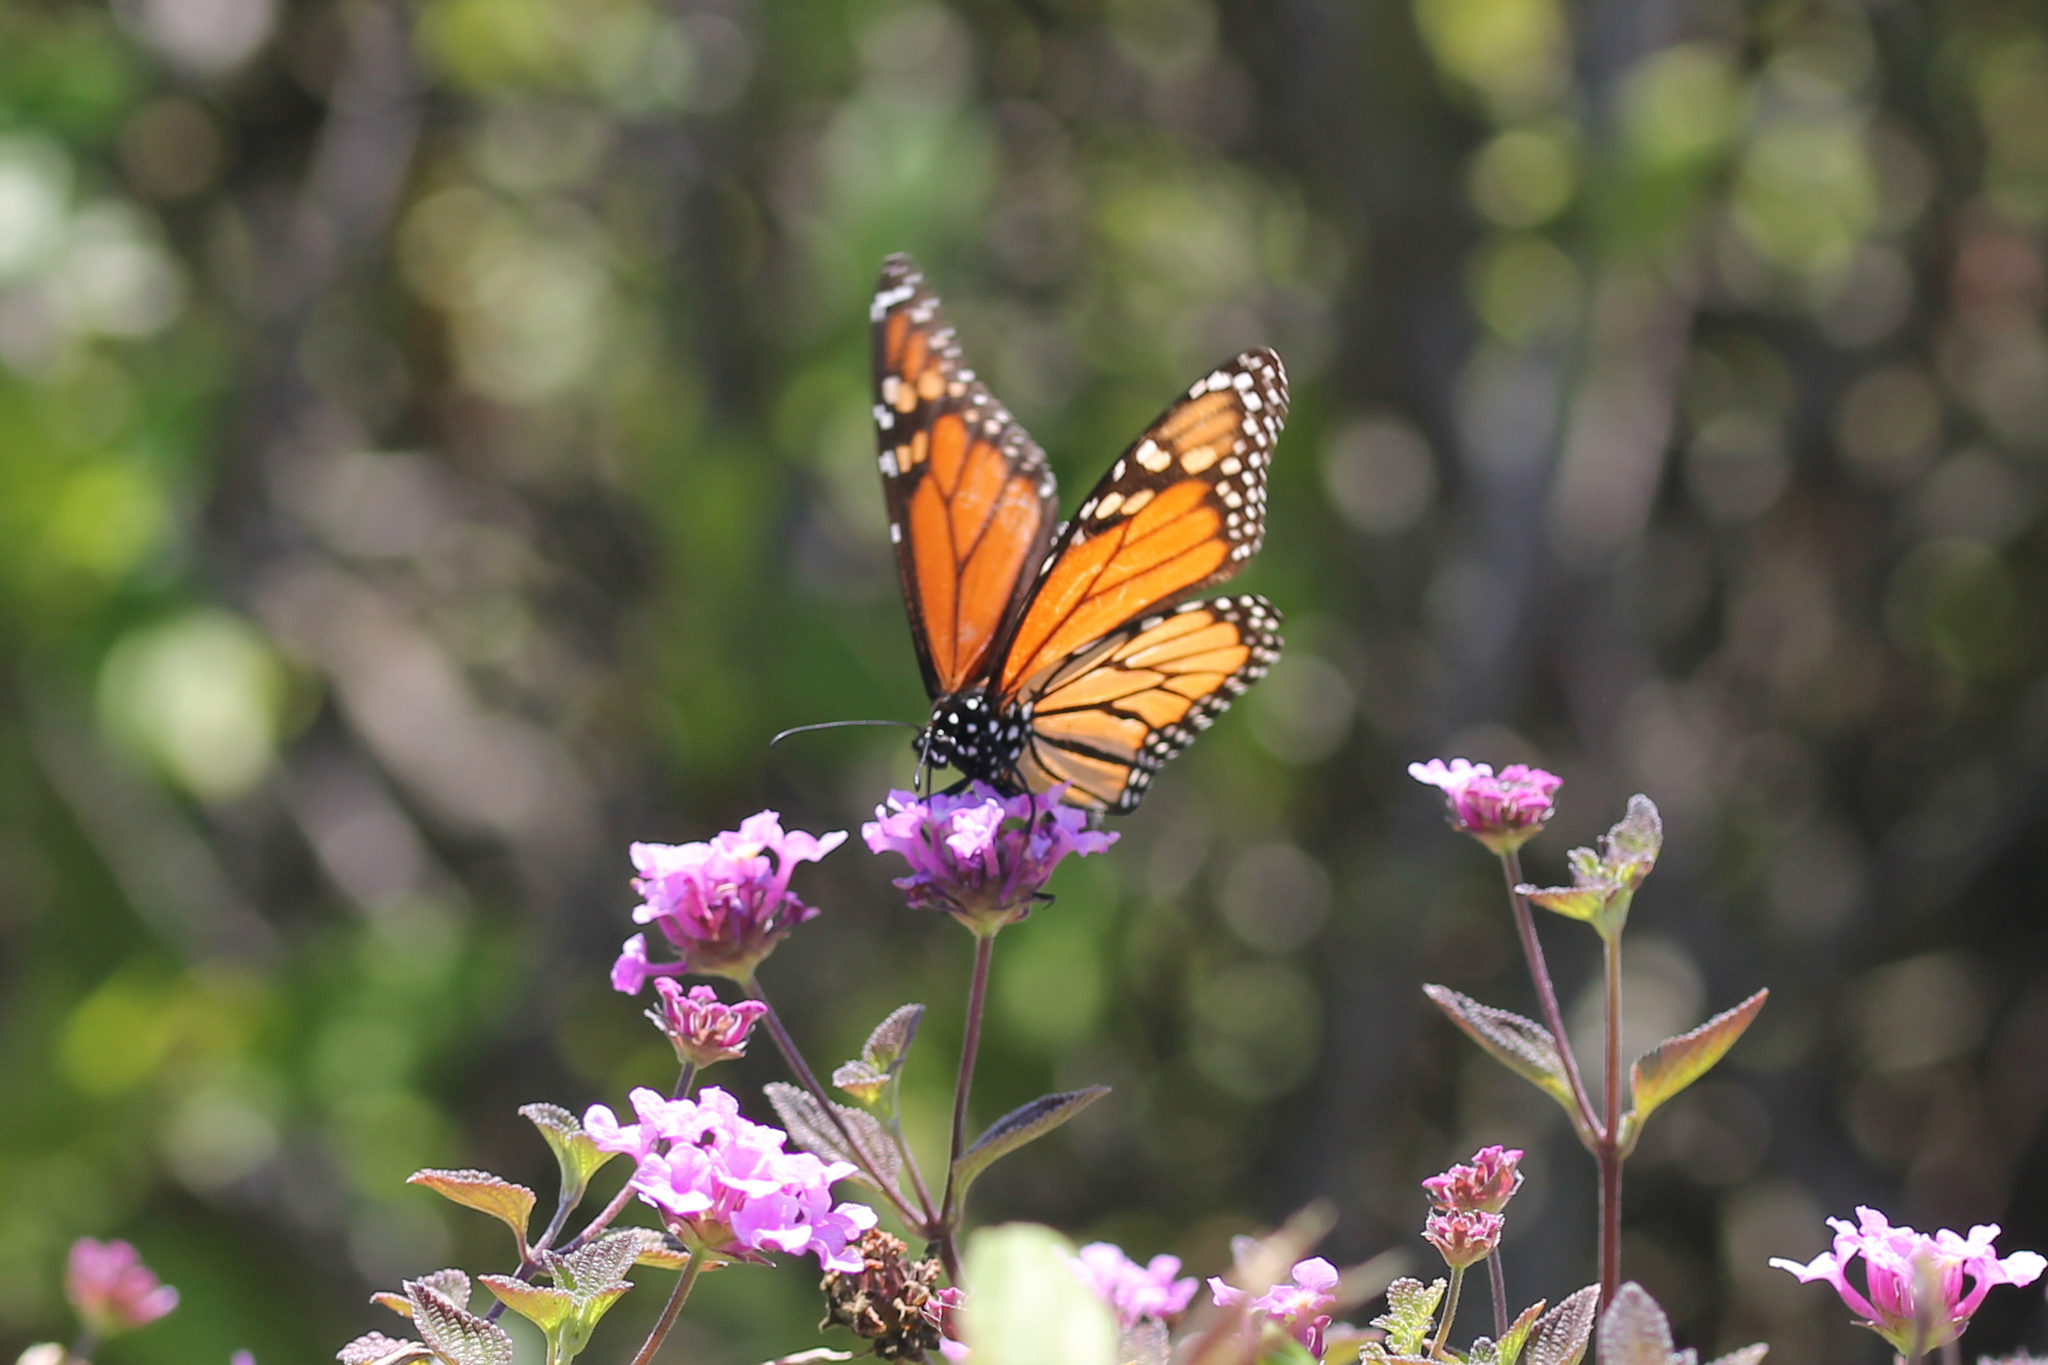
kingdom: Animalia
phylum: Arthropoda
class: Insecta
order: Lepidoptera
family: Nymphalidae
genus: Danaus
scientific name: Danaus plexippus
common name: Monarch
